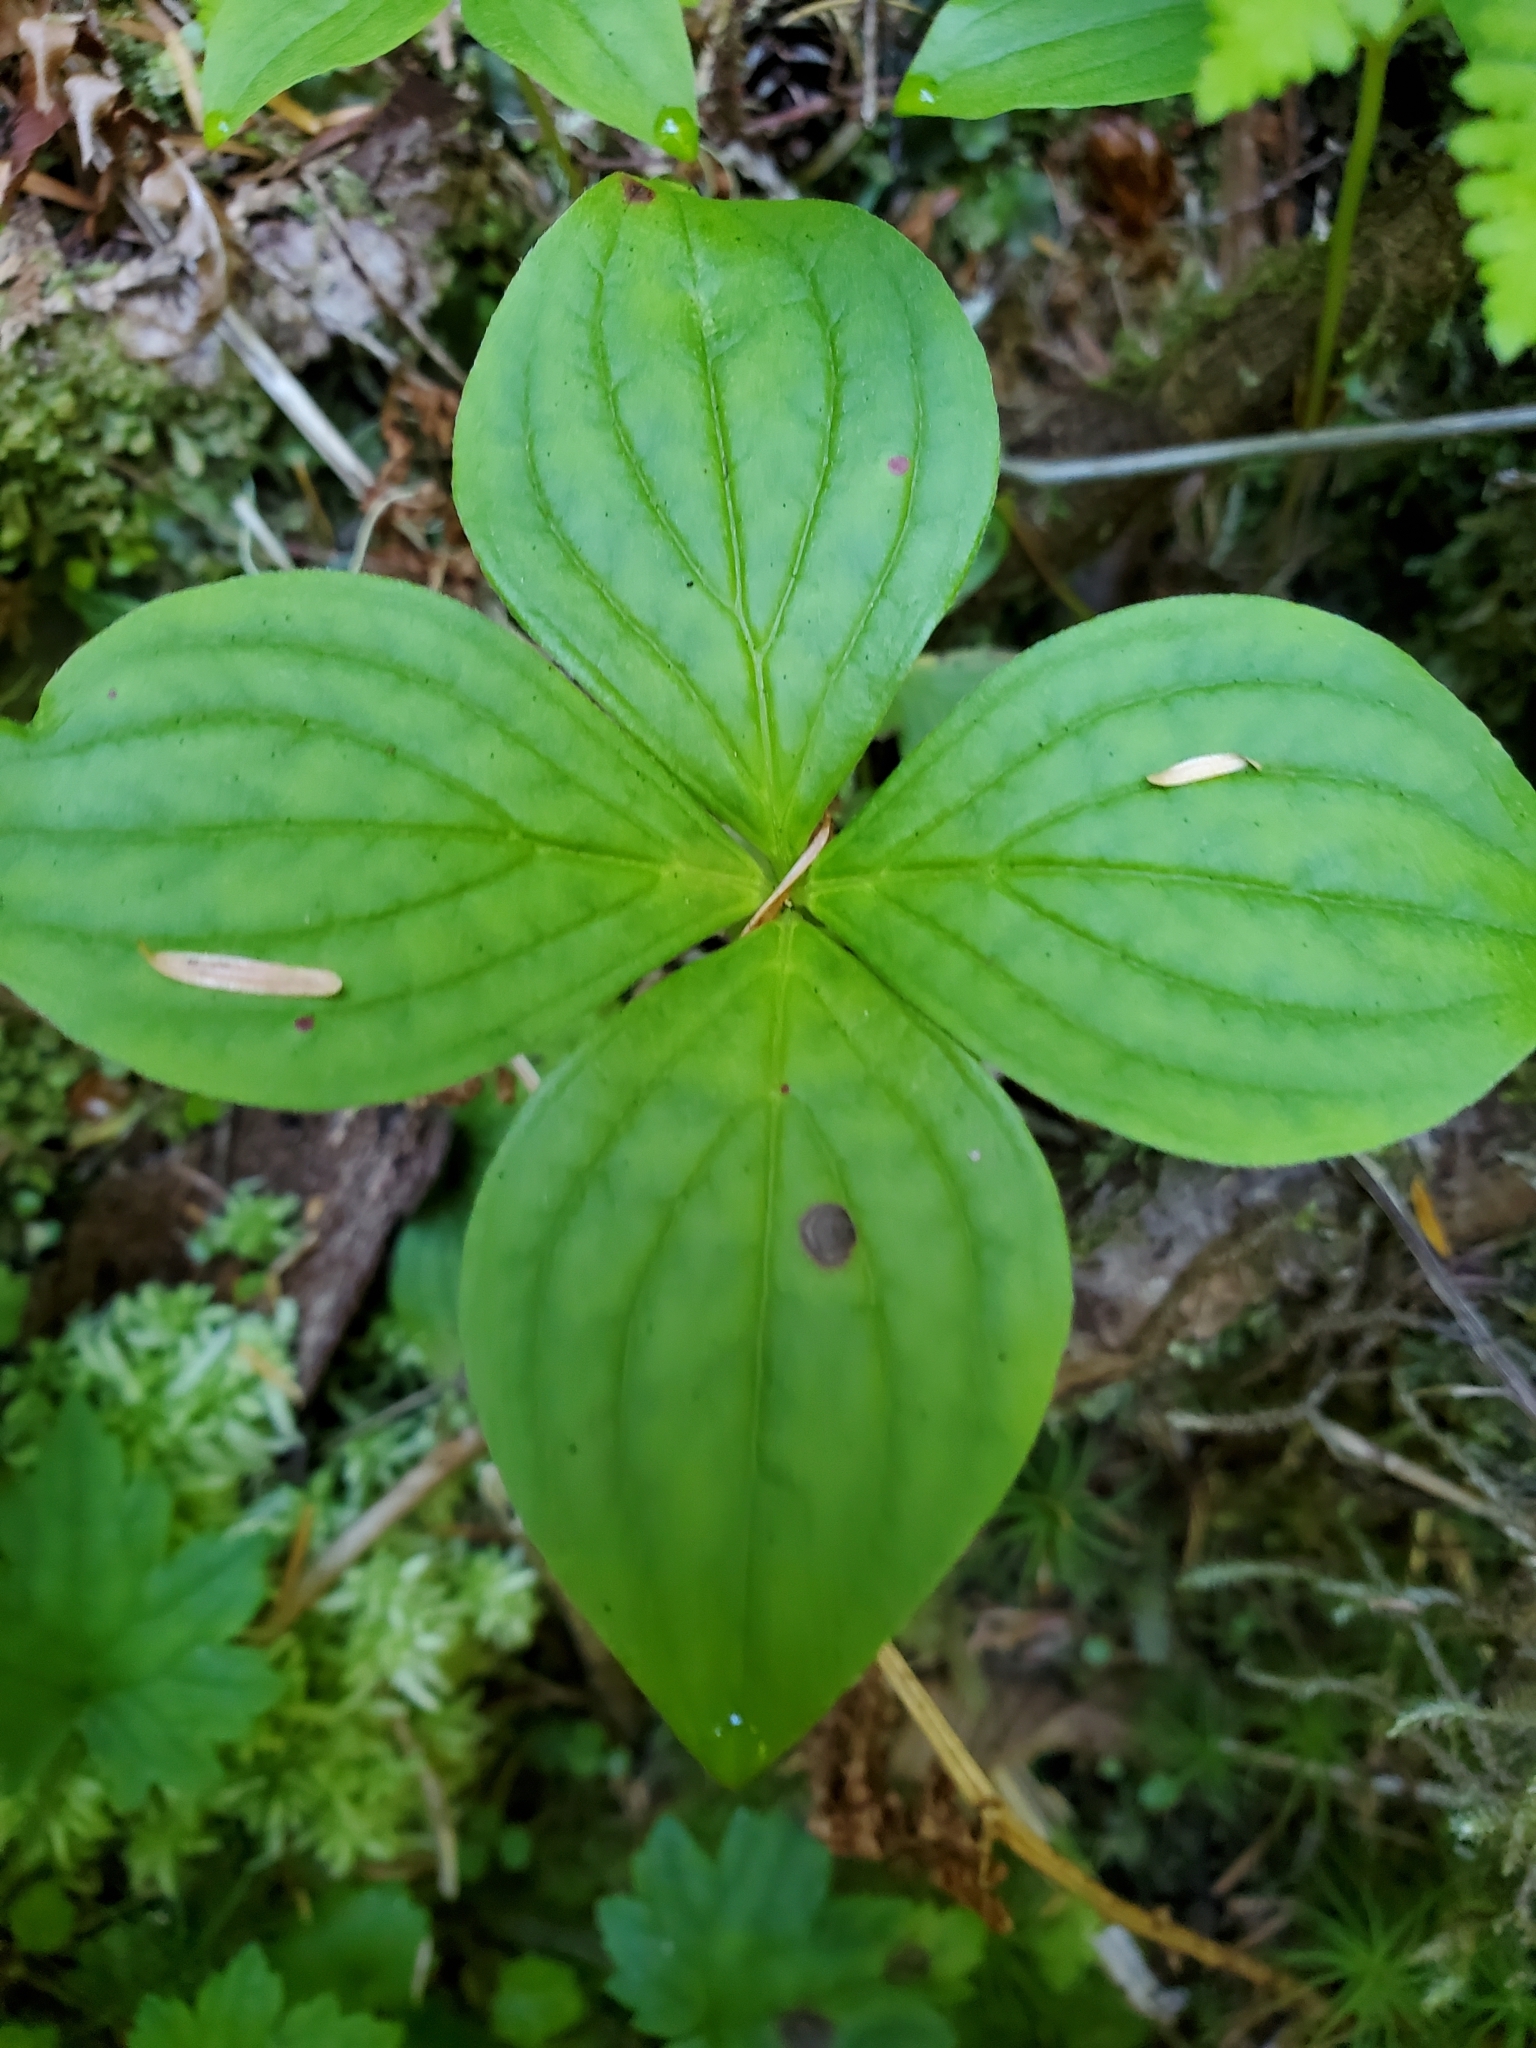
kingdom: Plantae
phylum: Tracheophyta
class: Magnoliopsida
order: Cornales
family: Cornaceae
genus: Cornus
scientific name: Cornus unalaschkensis
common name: Alaska bunchberry
